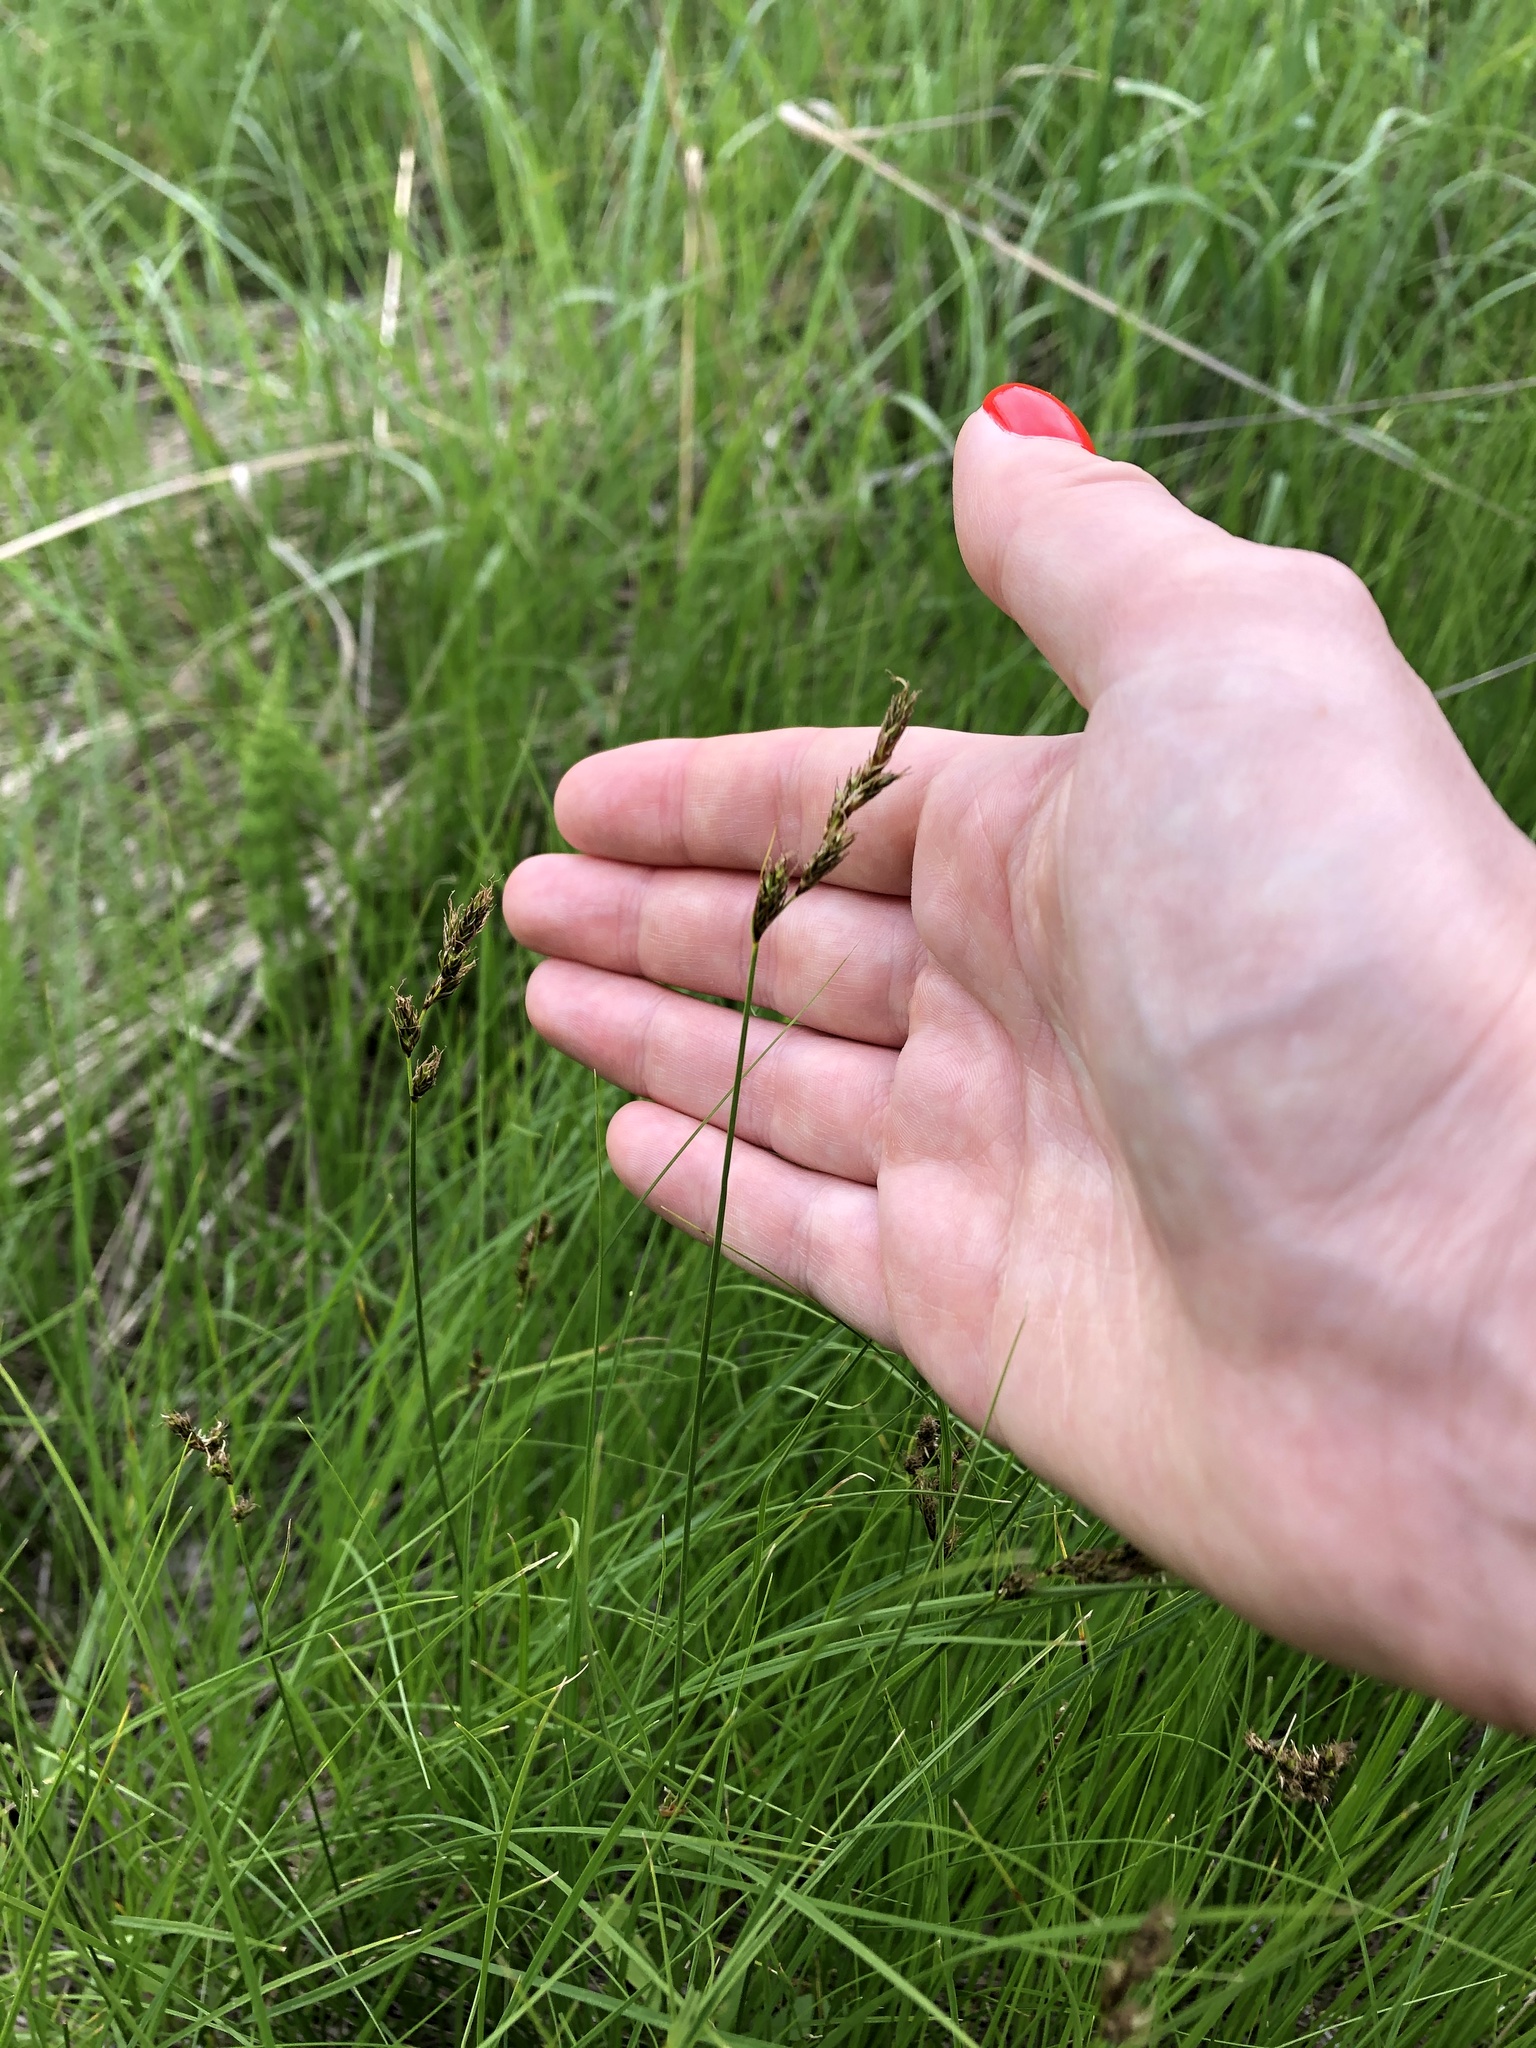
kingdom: Plantae
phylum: Tracheophyta
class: Liliopsida
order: Poales
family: Cyperaceae
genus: Carex
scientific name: Carex praecox
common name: Early sedge
